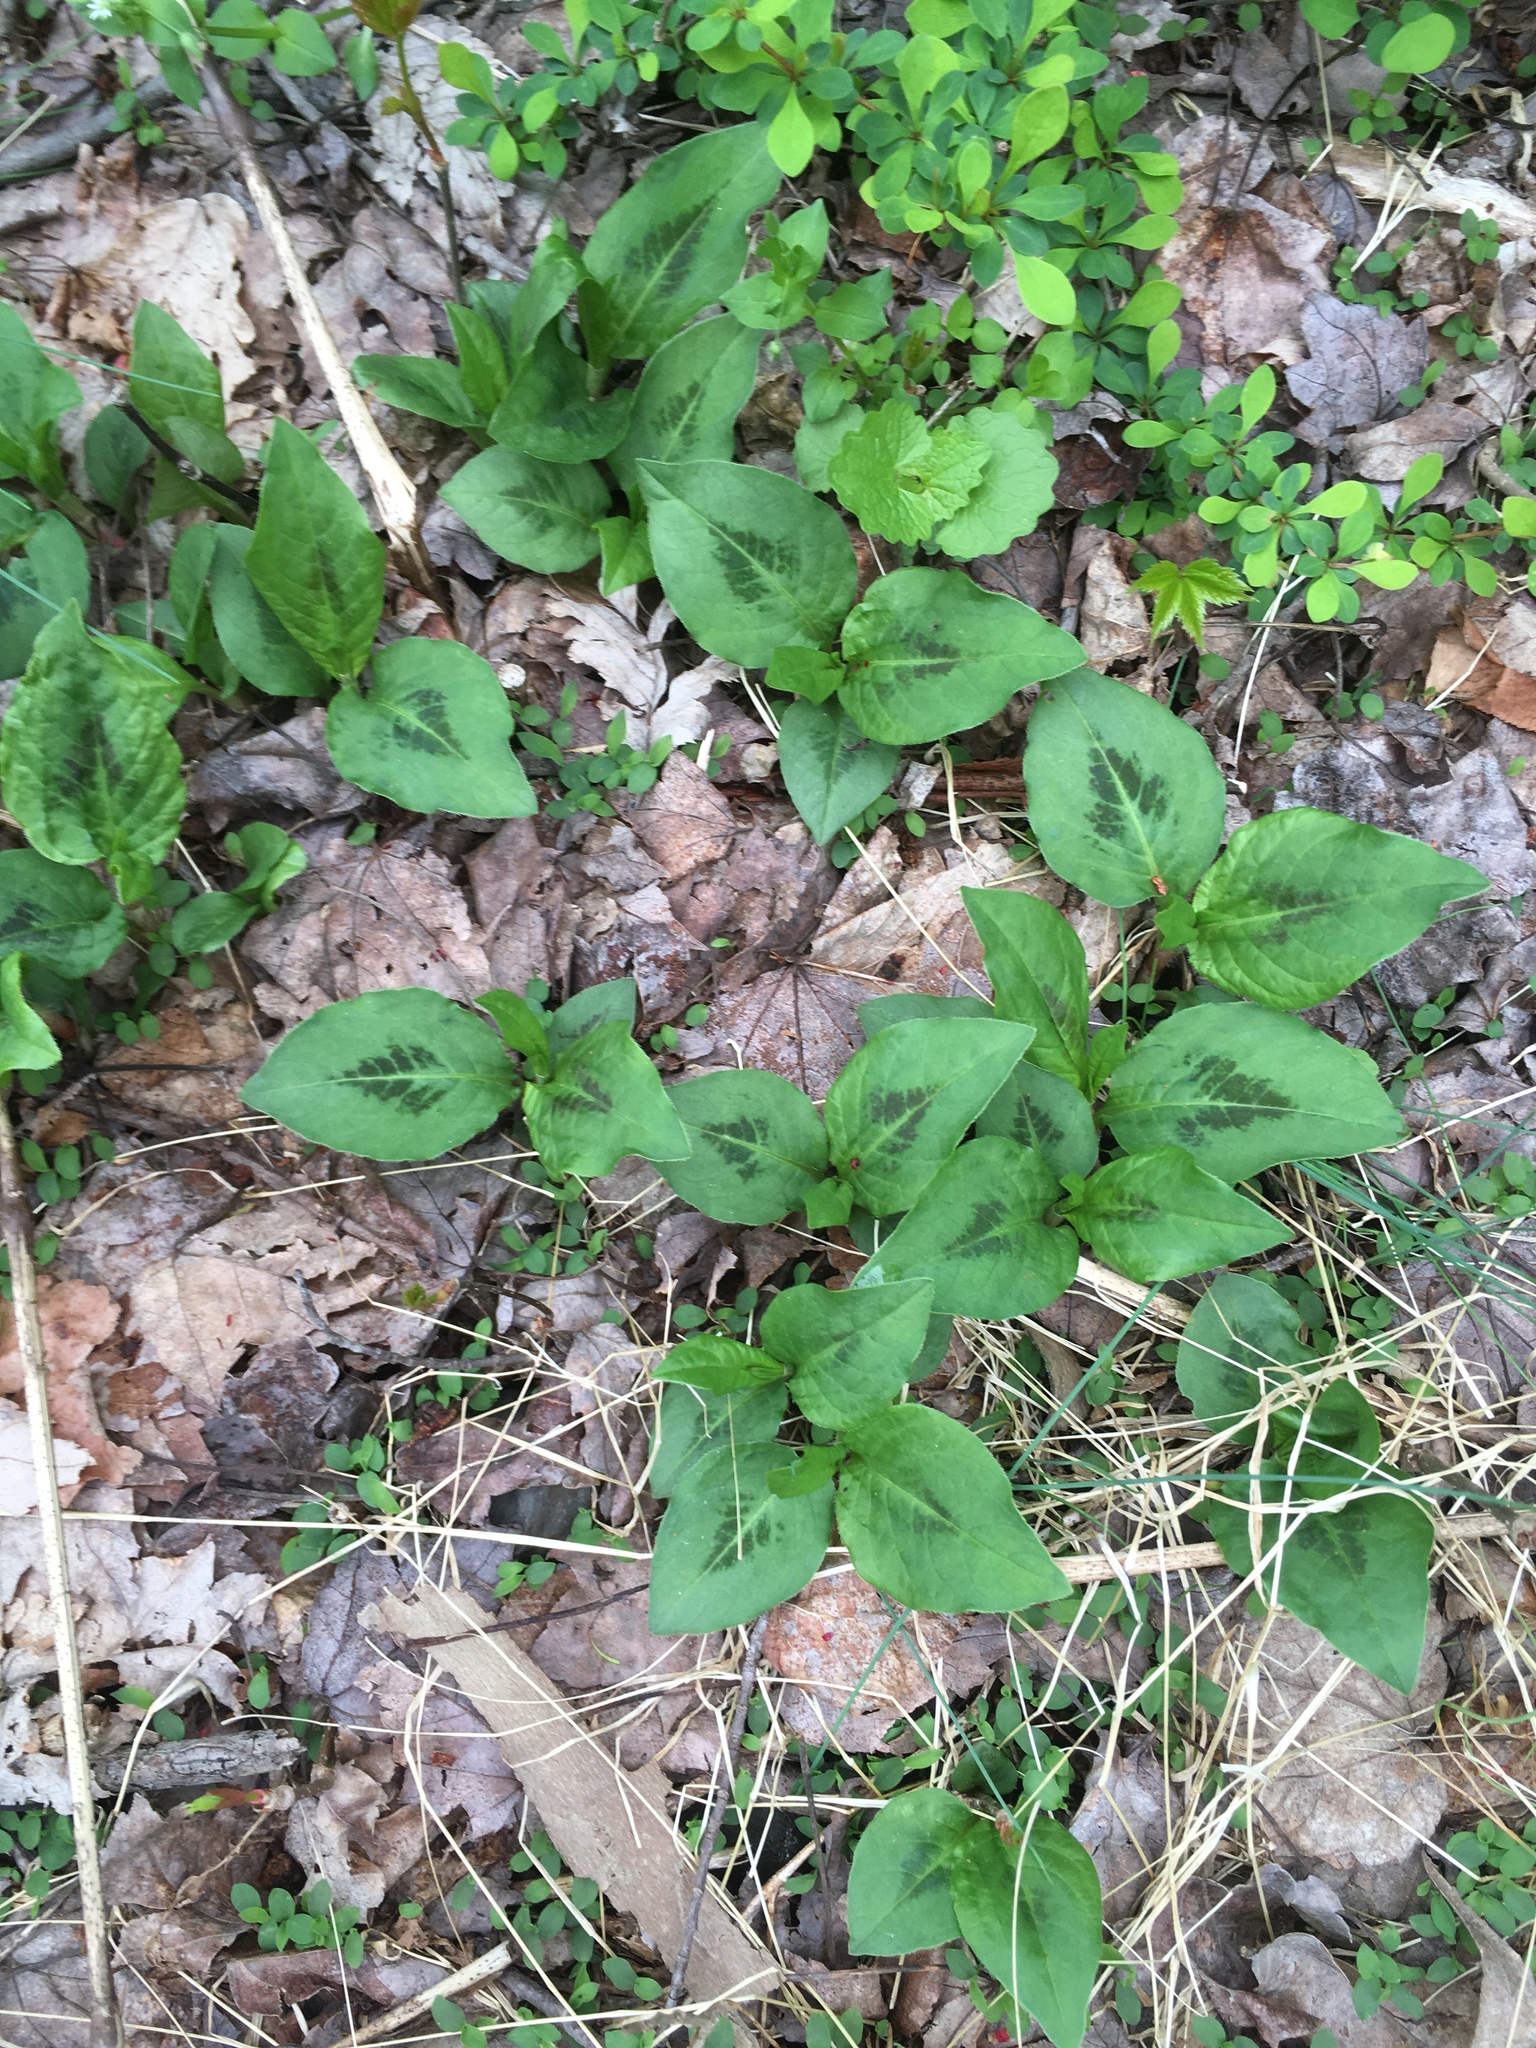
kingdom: Plantae
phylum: Tracheophyta
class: Magnoliopsida
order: Caryophyllales
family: Polygonaceae
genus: Persicaria
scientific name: Persicaria virginiana
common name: Jumpseed
